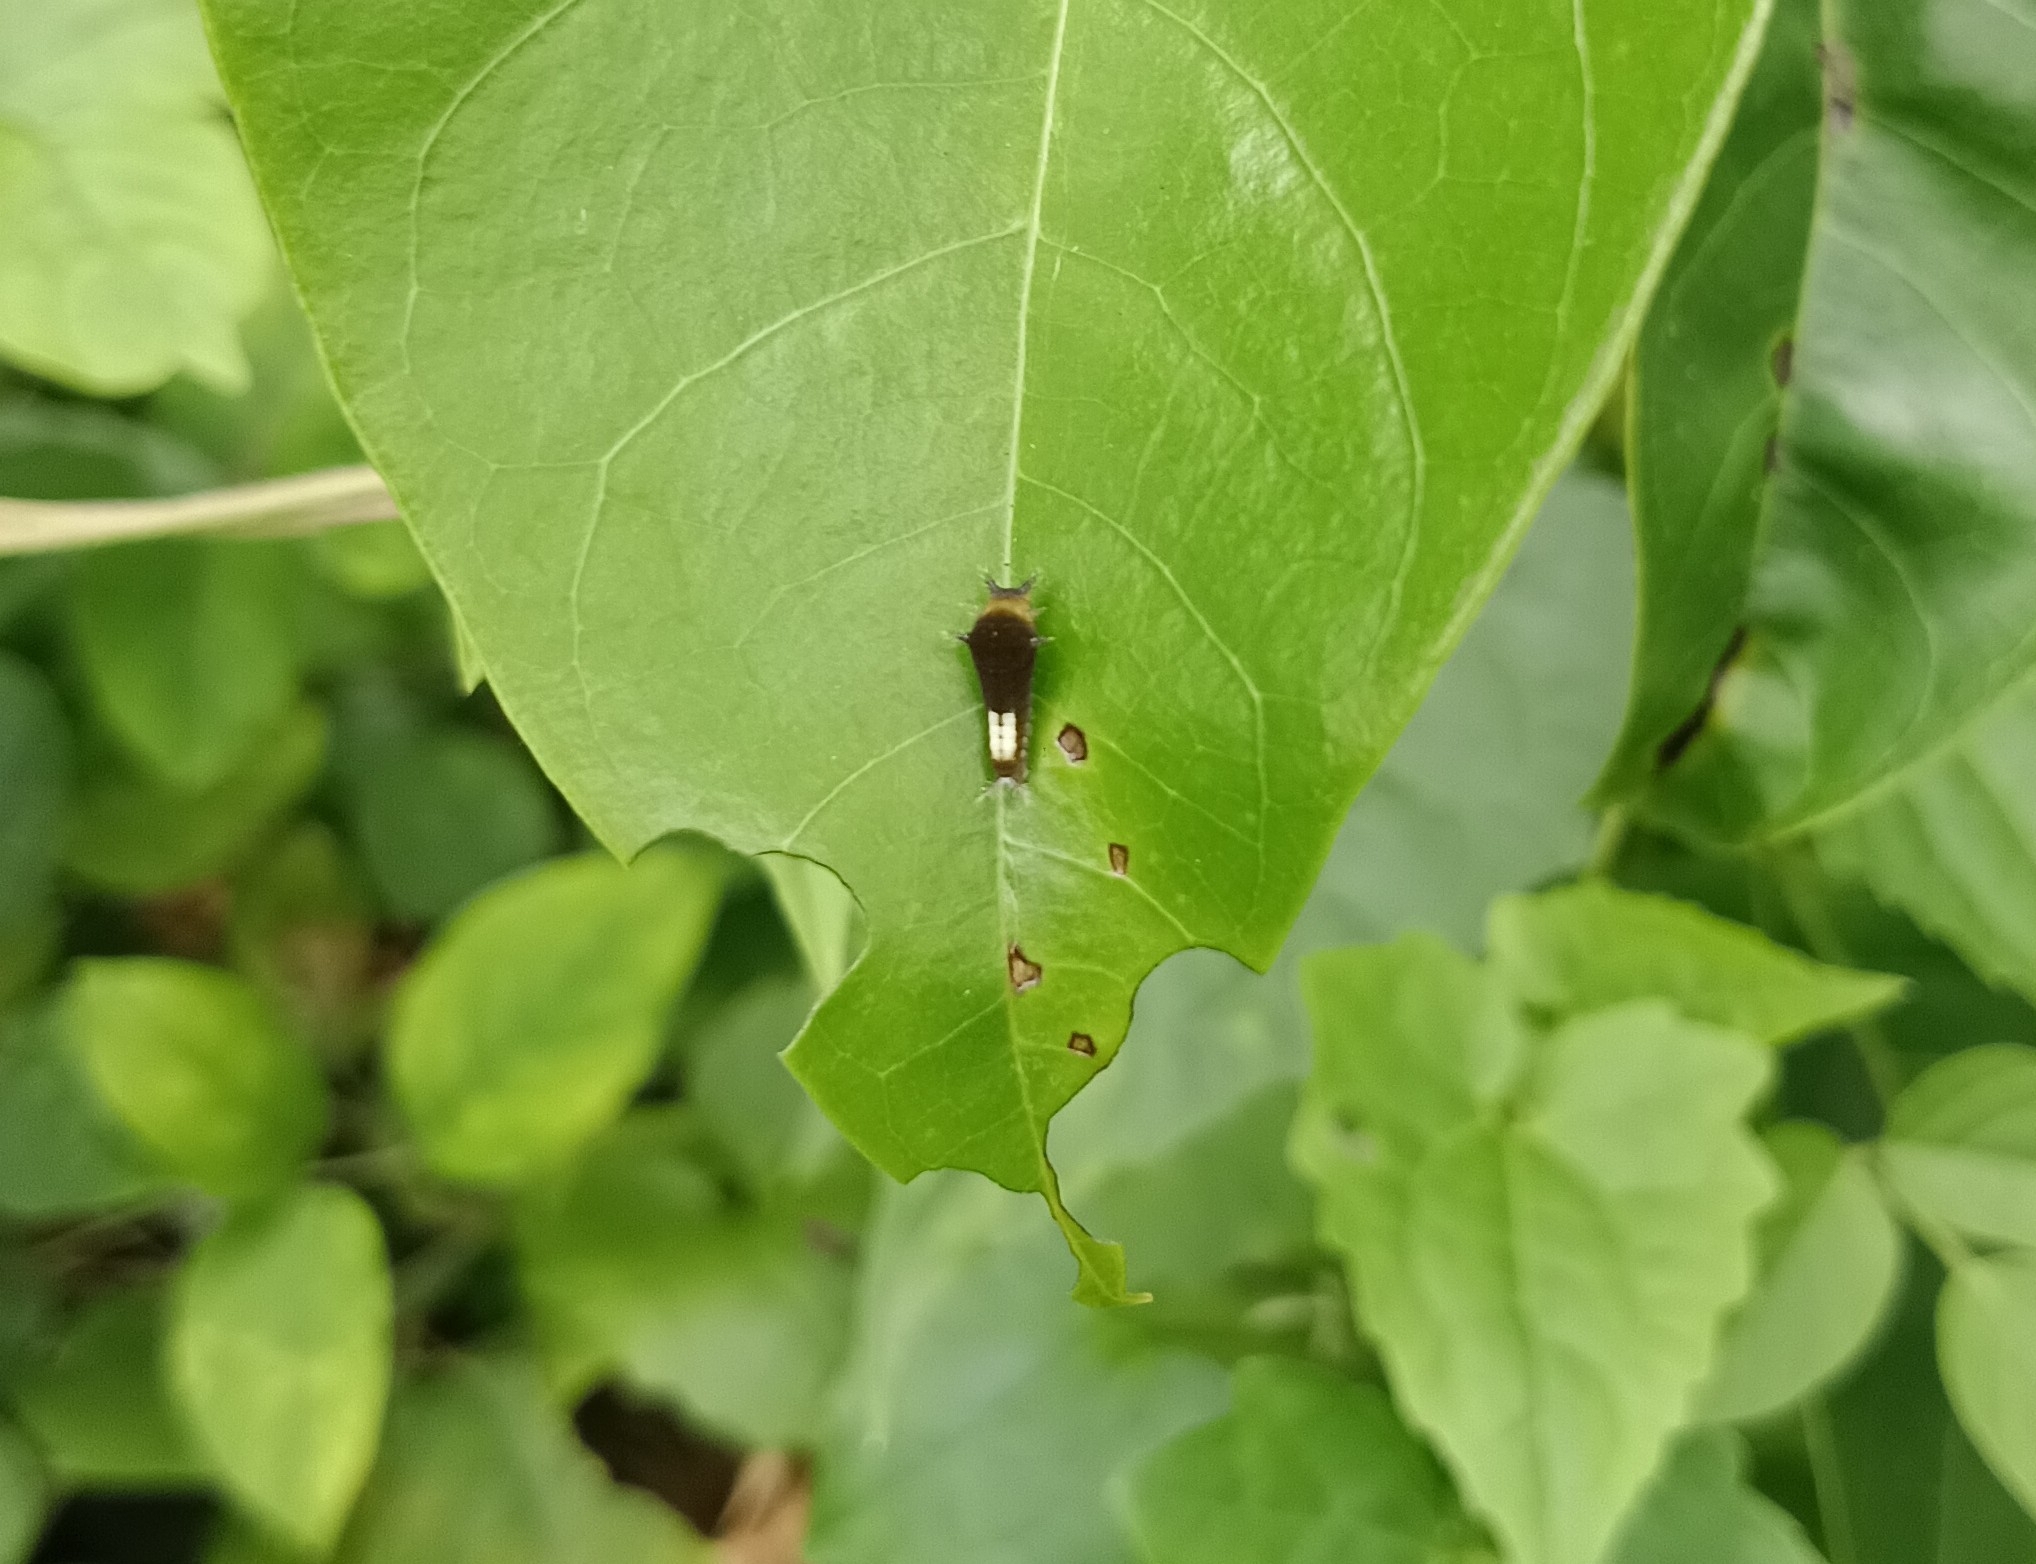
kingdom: Animalia
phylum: Arthropoda
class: Insecta
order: Lepidoptera
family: Papilionidae
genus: Graphium
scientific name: Graphium agamemnon
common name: Tailed jay
